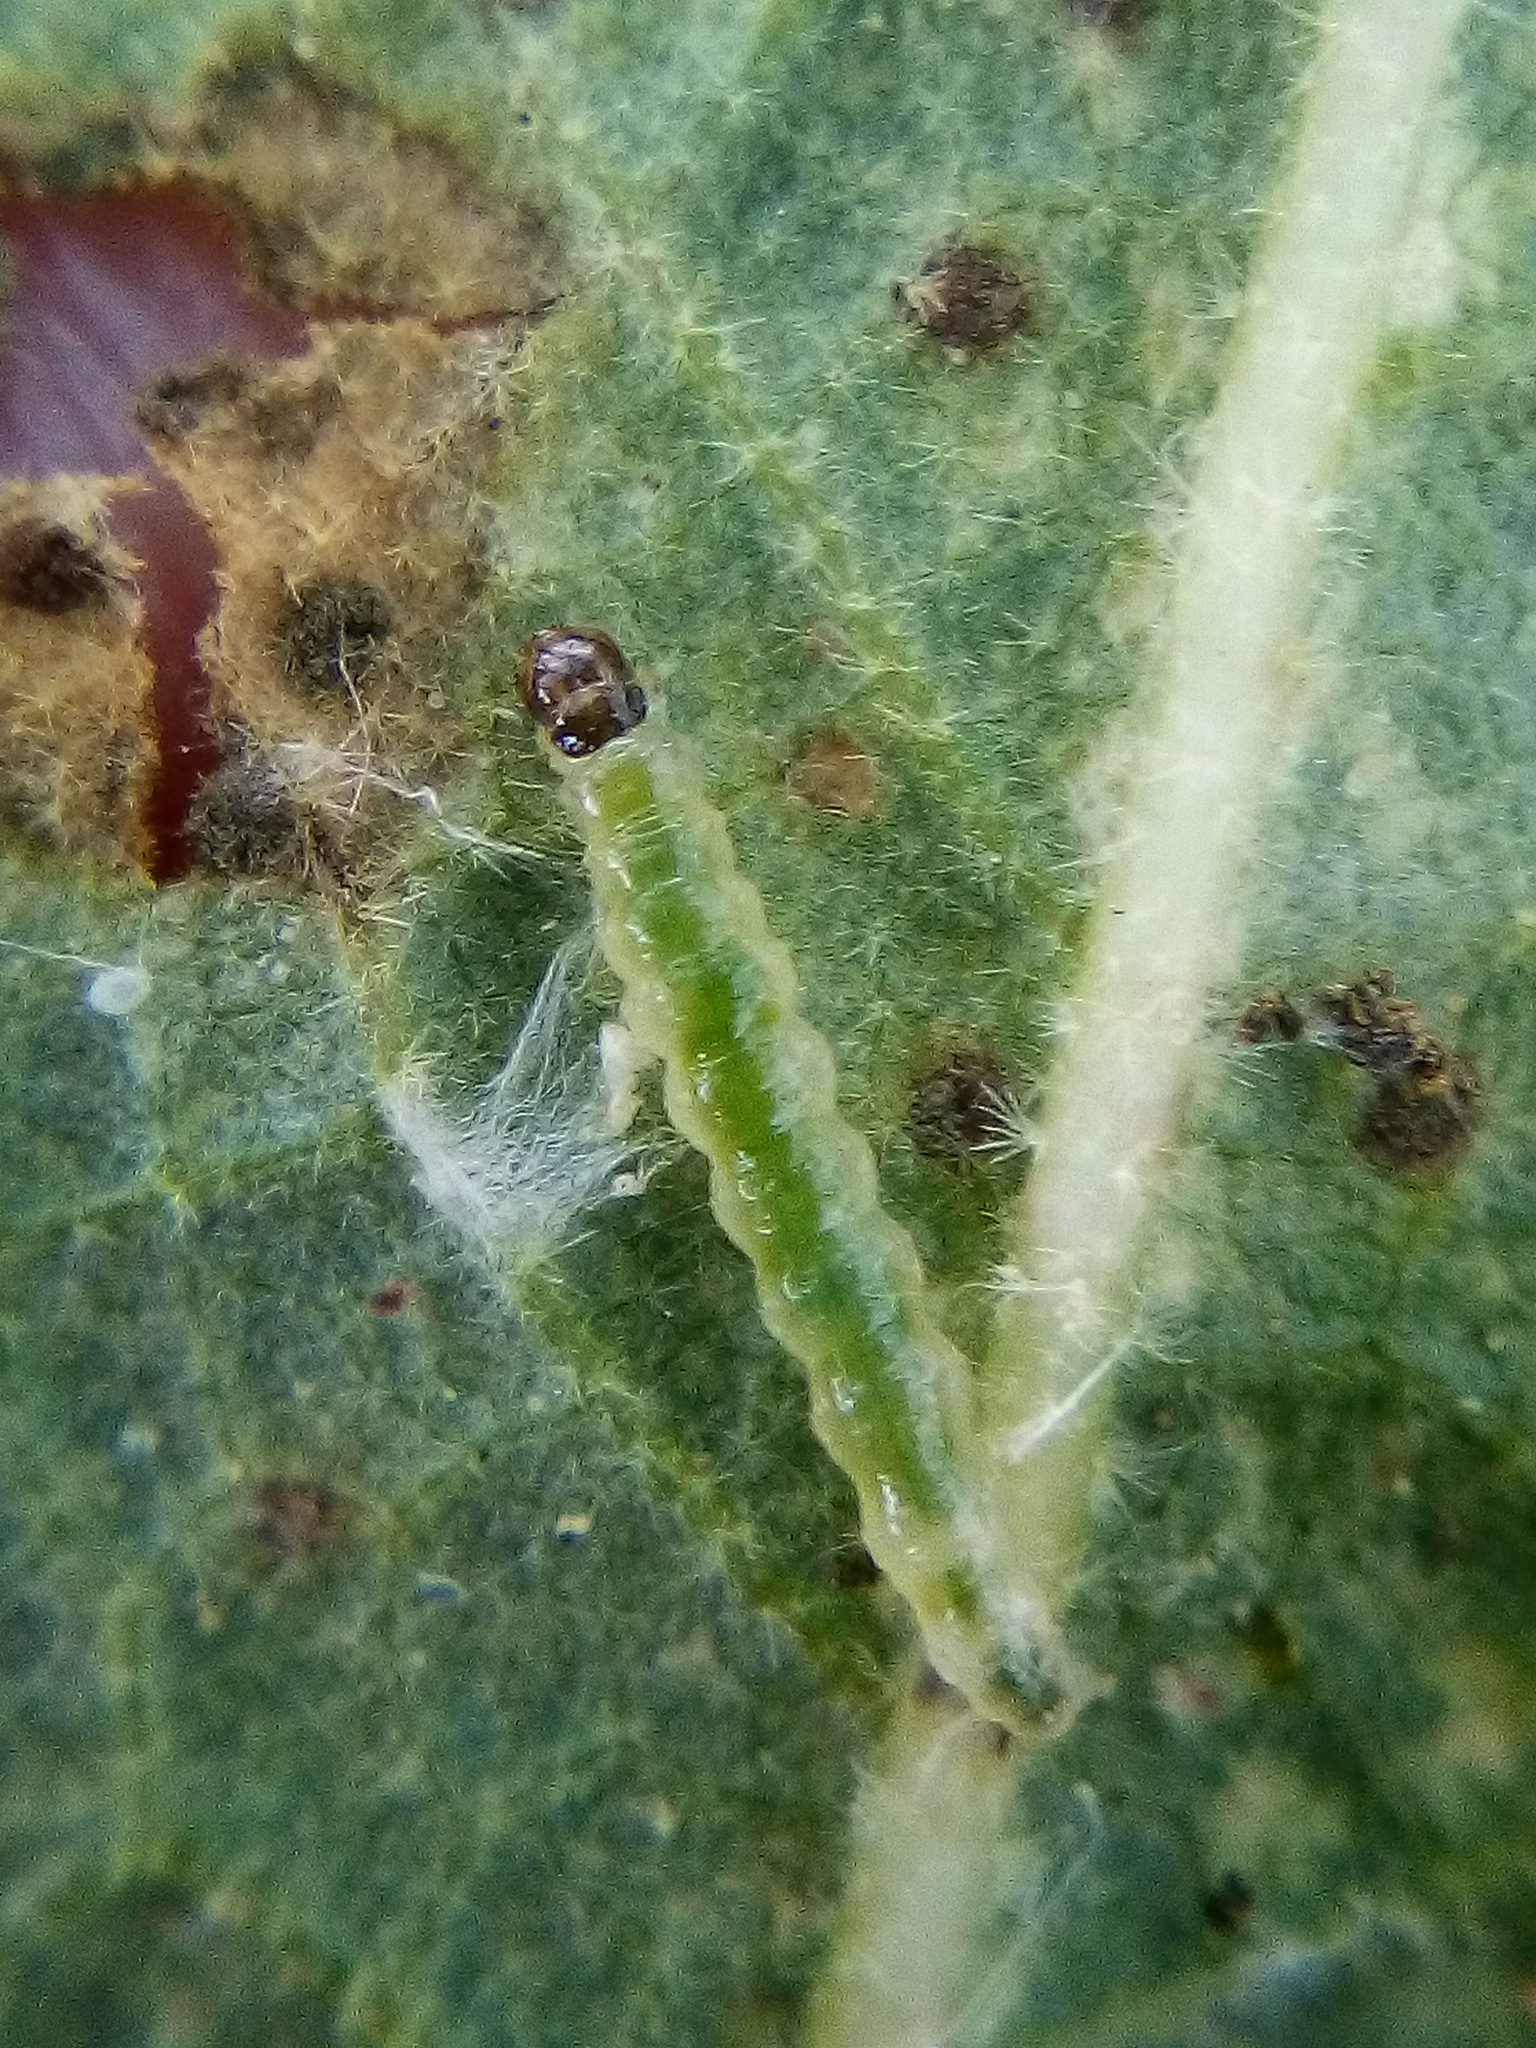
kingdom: Animalia
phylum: Arthropoda
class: Insecta
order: Lepidoptera
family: Crambidae
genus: Haritalodes
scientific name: Haritalodes derogata
